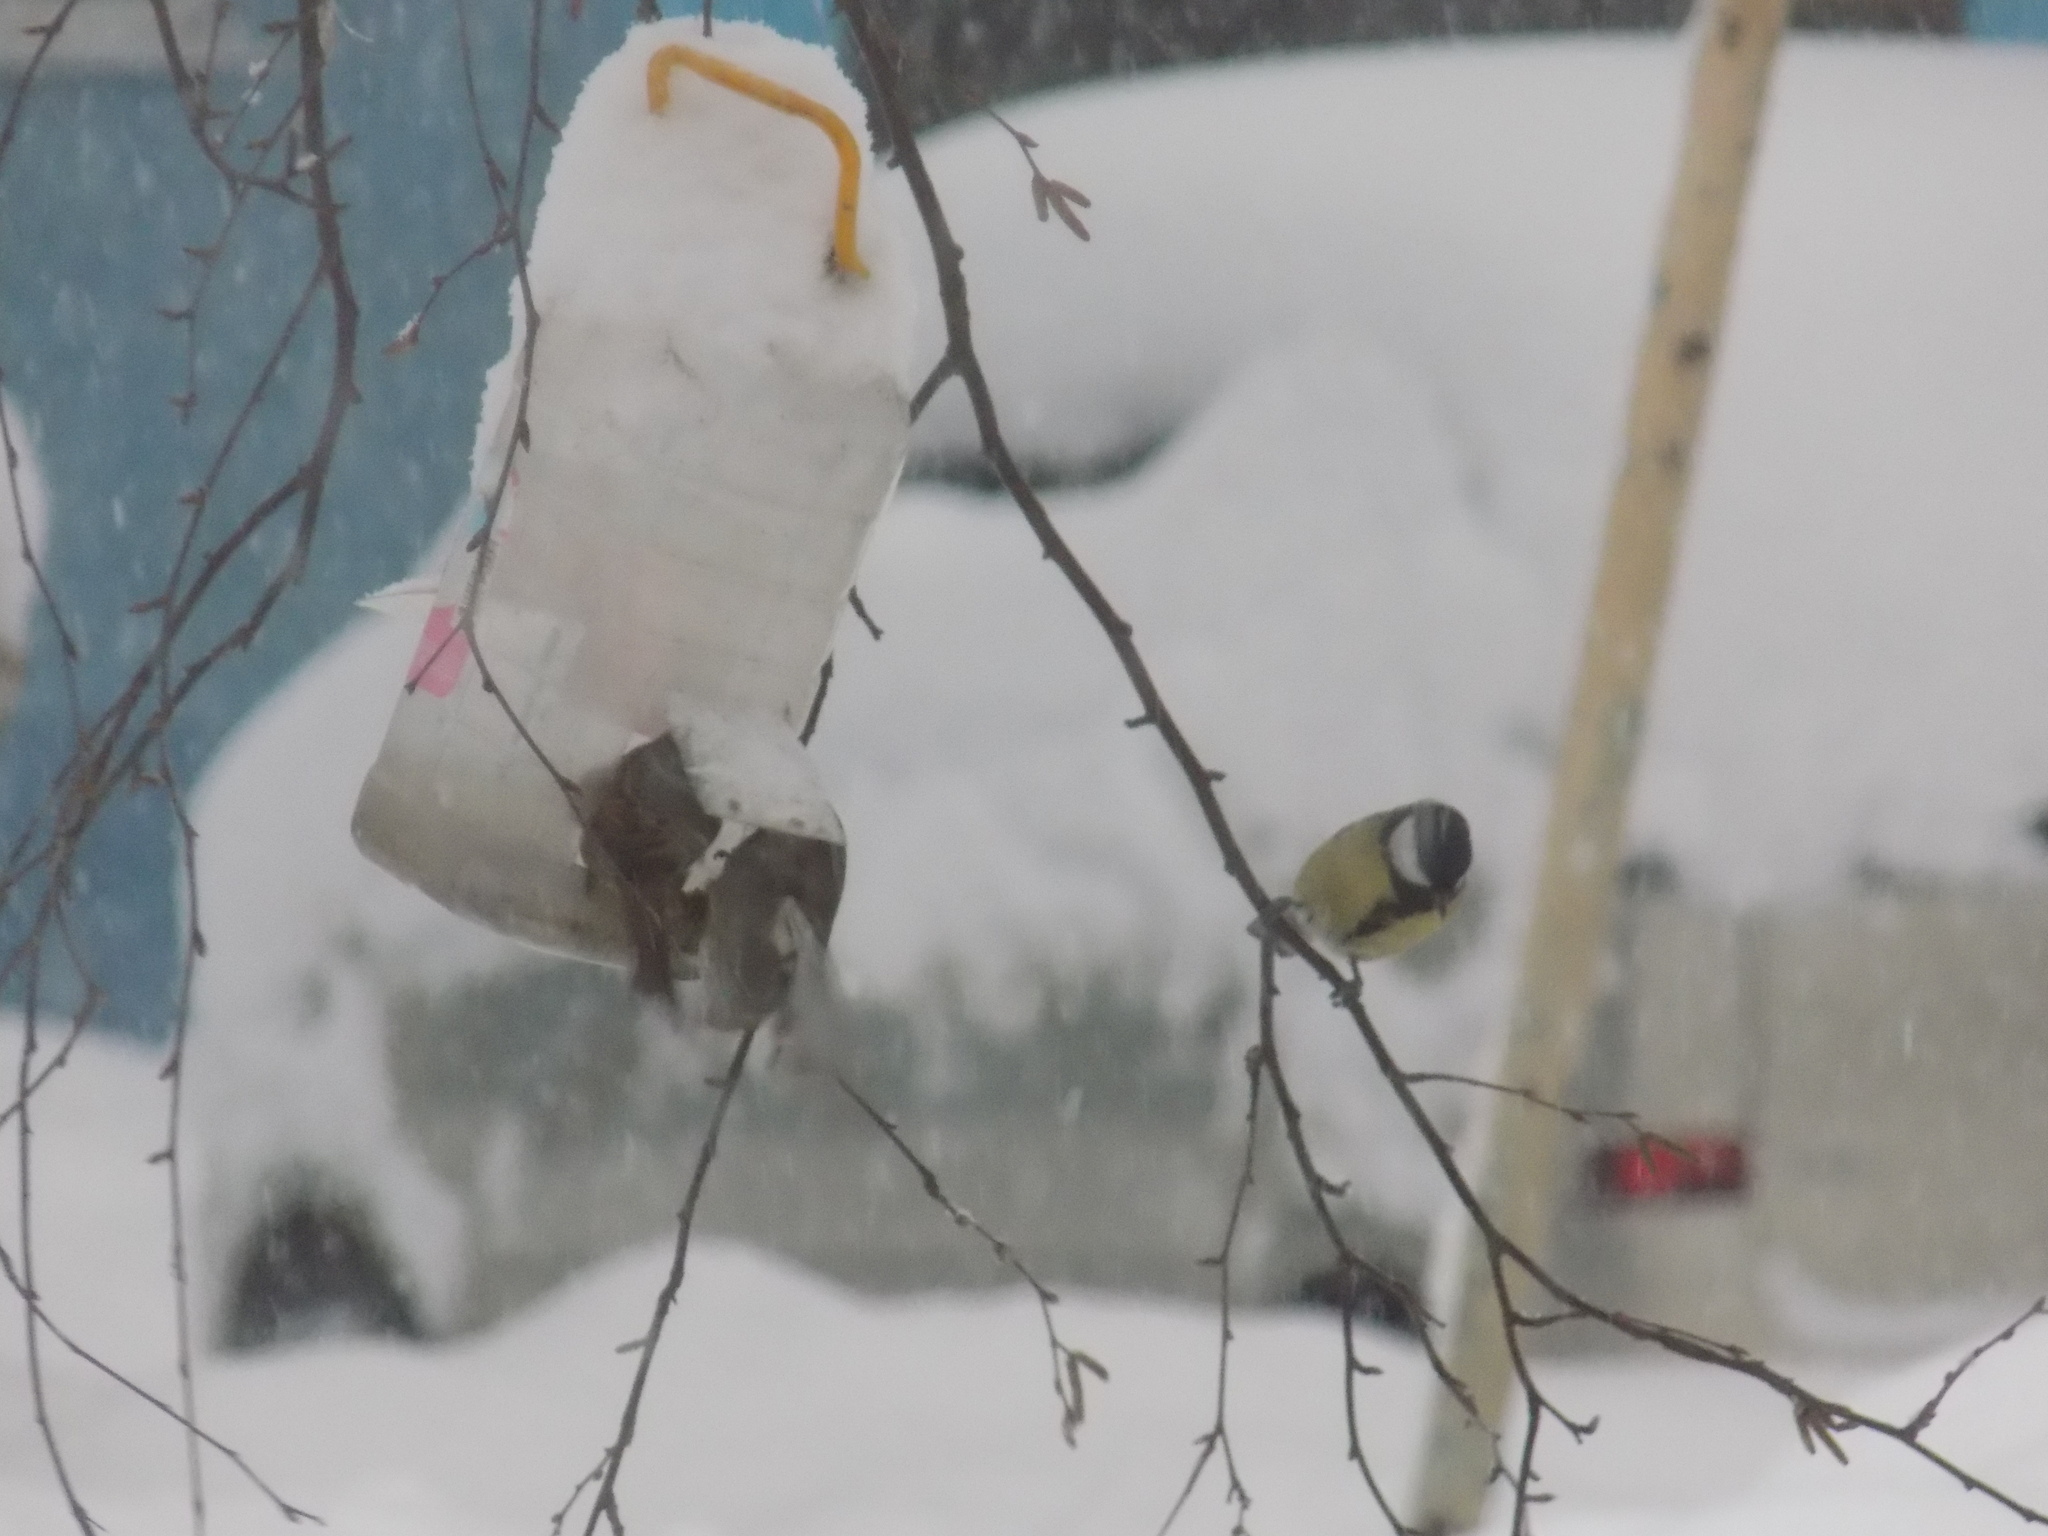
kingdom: Animalia
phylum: Chordata
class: Aves
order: Passeriformes
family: Paridae
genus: Parus
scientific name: Parus major
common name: Great tit
